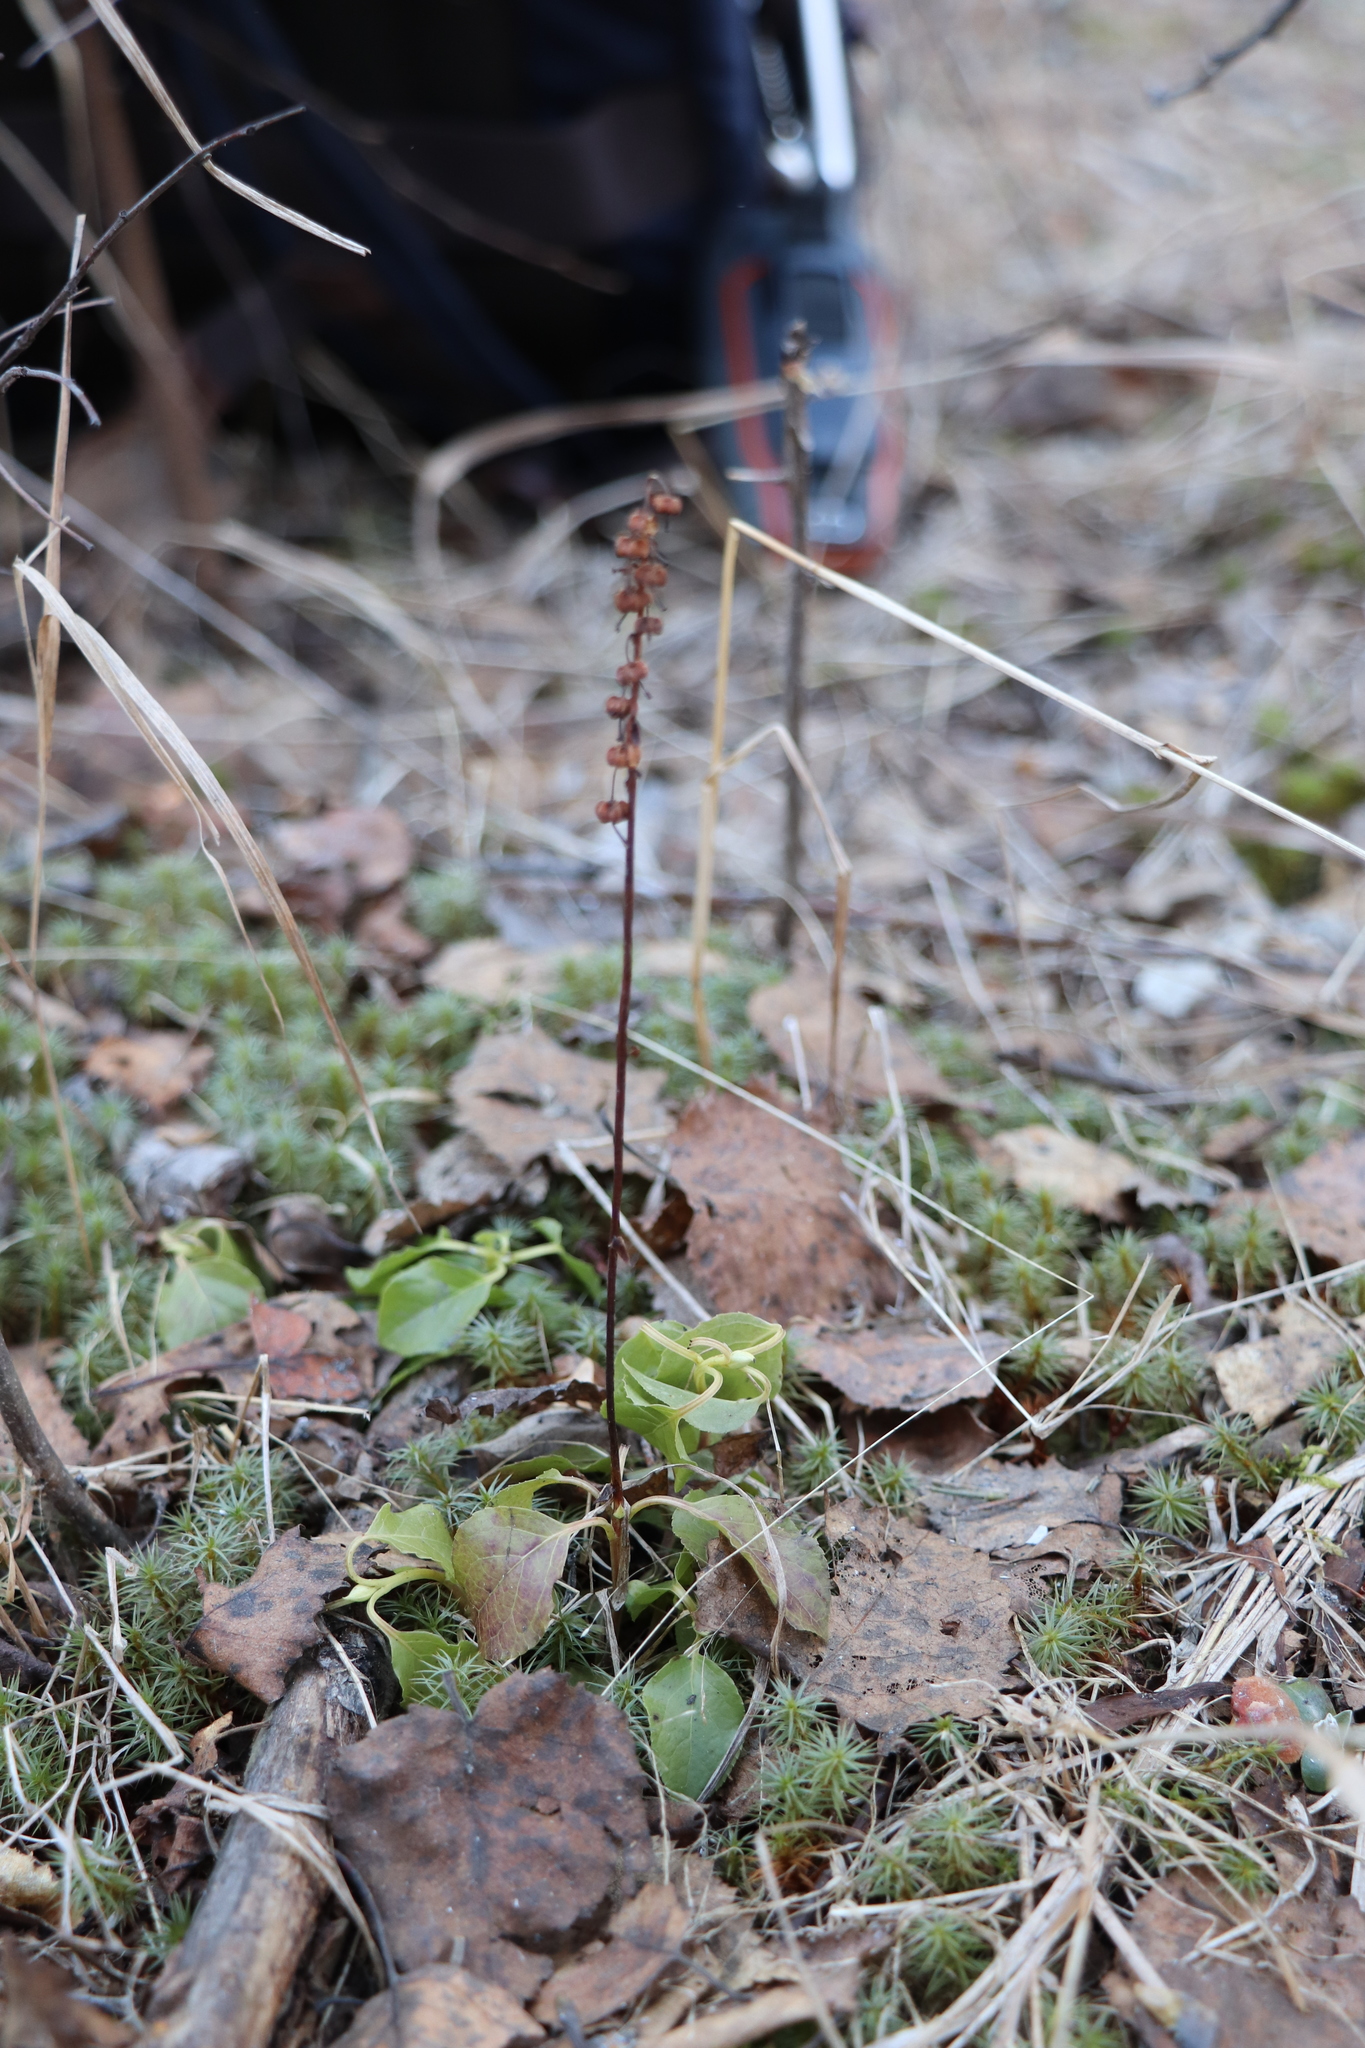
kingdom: Plantae
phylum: Tracheophyta
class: Magnoliopsida
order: Ericales
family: Ericaceae
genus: Orthilia
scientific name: Orthilia secunda
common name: One-sided orthilia
